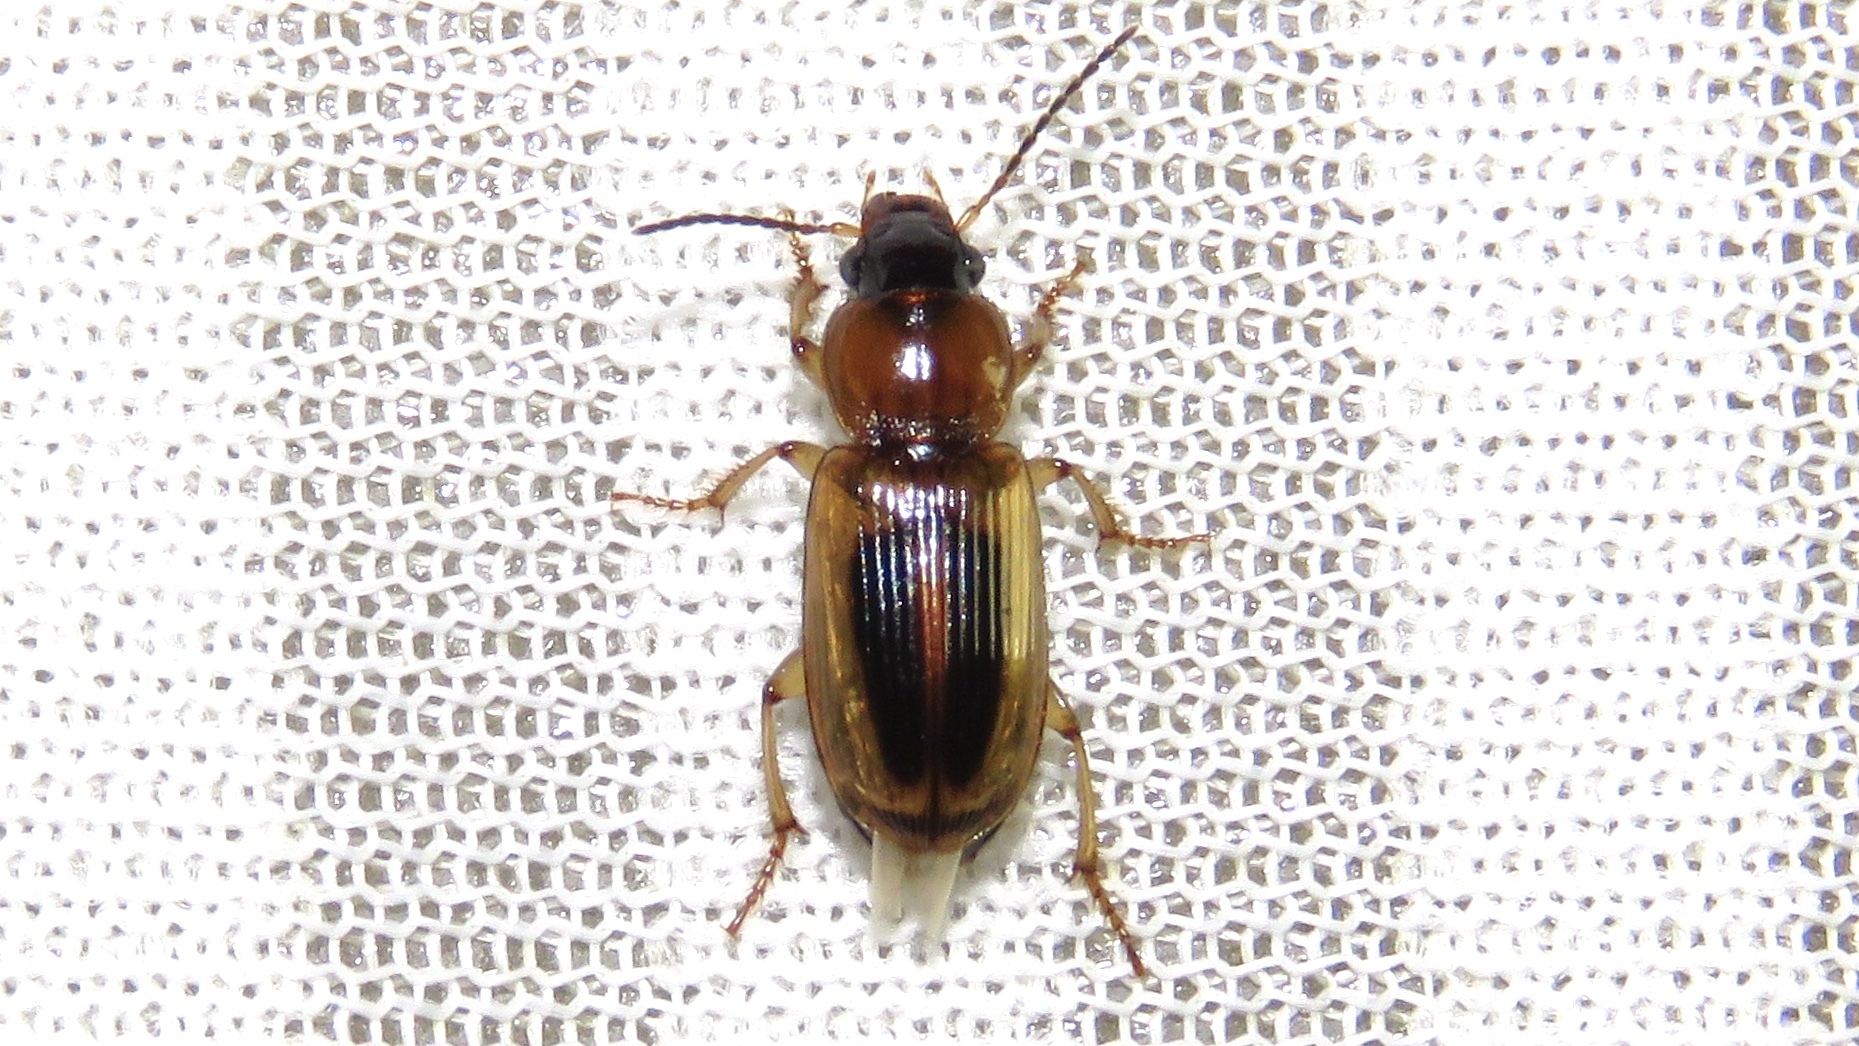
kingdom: Animalia
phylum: Arthropoda
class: Insecta
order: Coleoptera
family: Carabidae
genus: Stenolophus
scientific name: Stenolophus lecontei
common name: Leconte's seedcorn beetle
